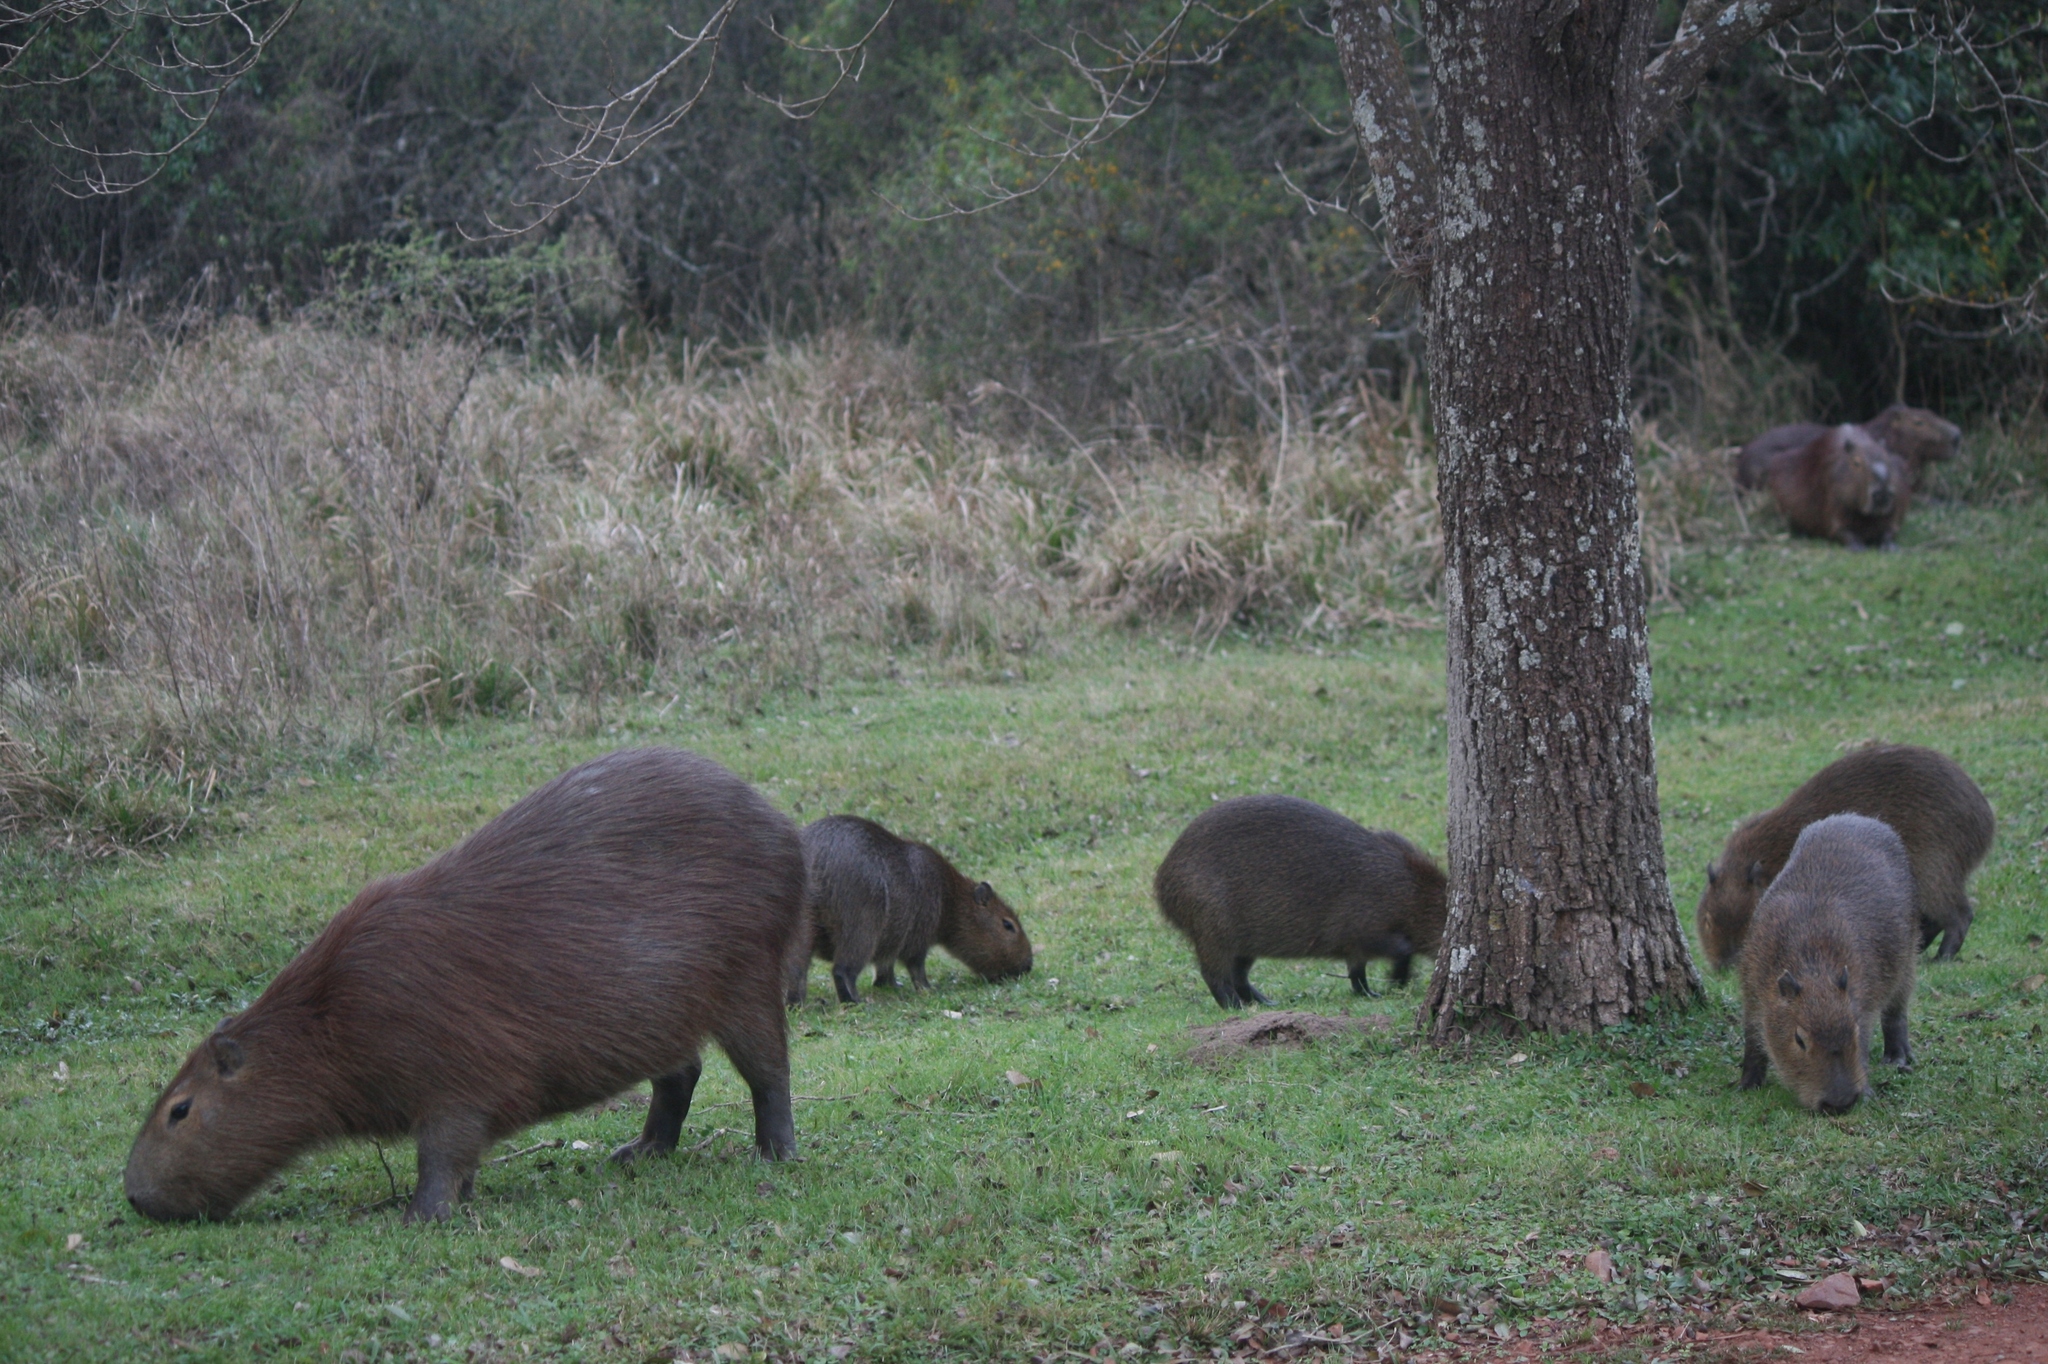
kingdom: Animalia
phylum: Chordata
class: Mammalia
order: Rodentia
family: Caviidae
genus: Hydrochoerus
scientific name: Hydrochoerus hydrochaeris
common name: Capybara
